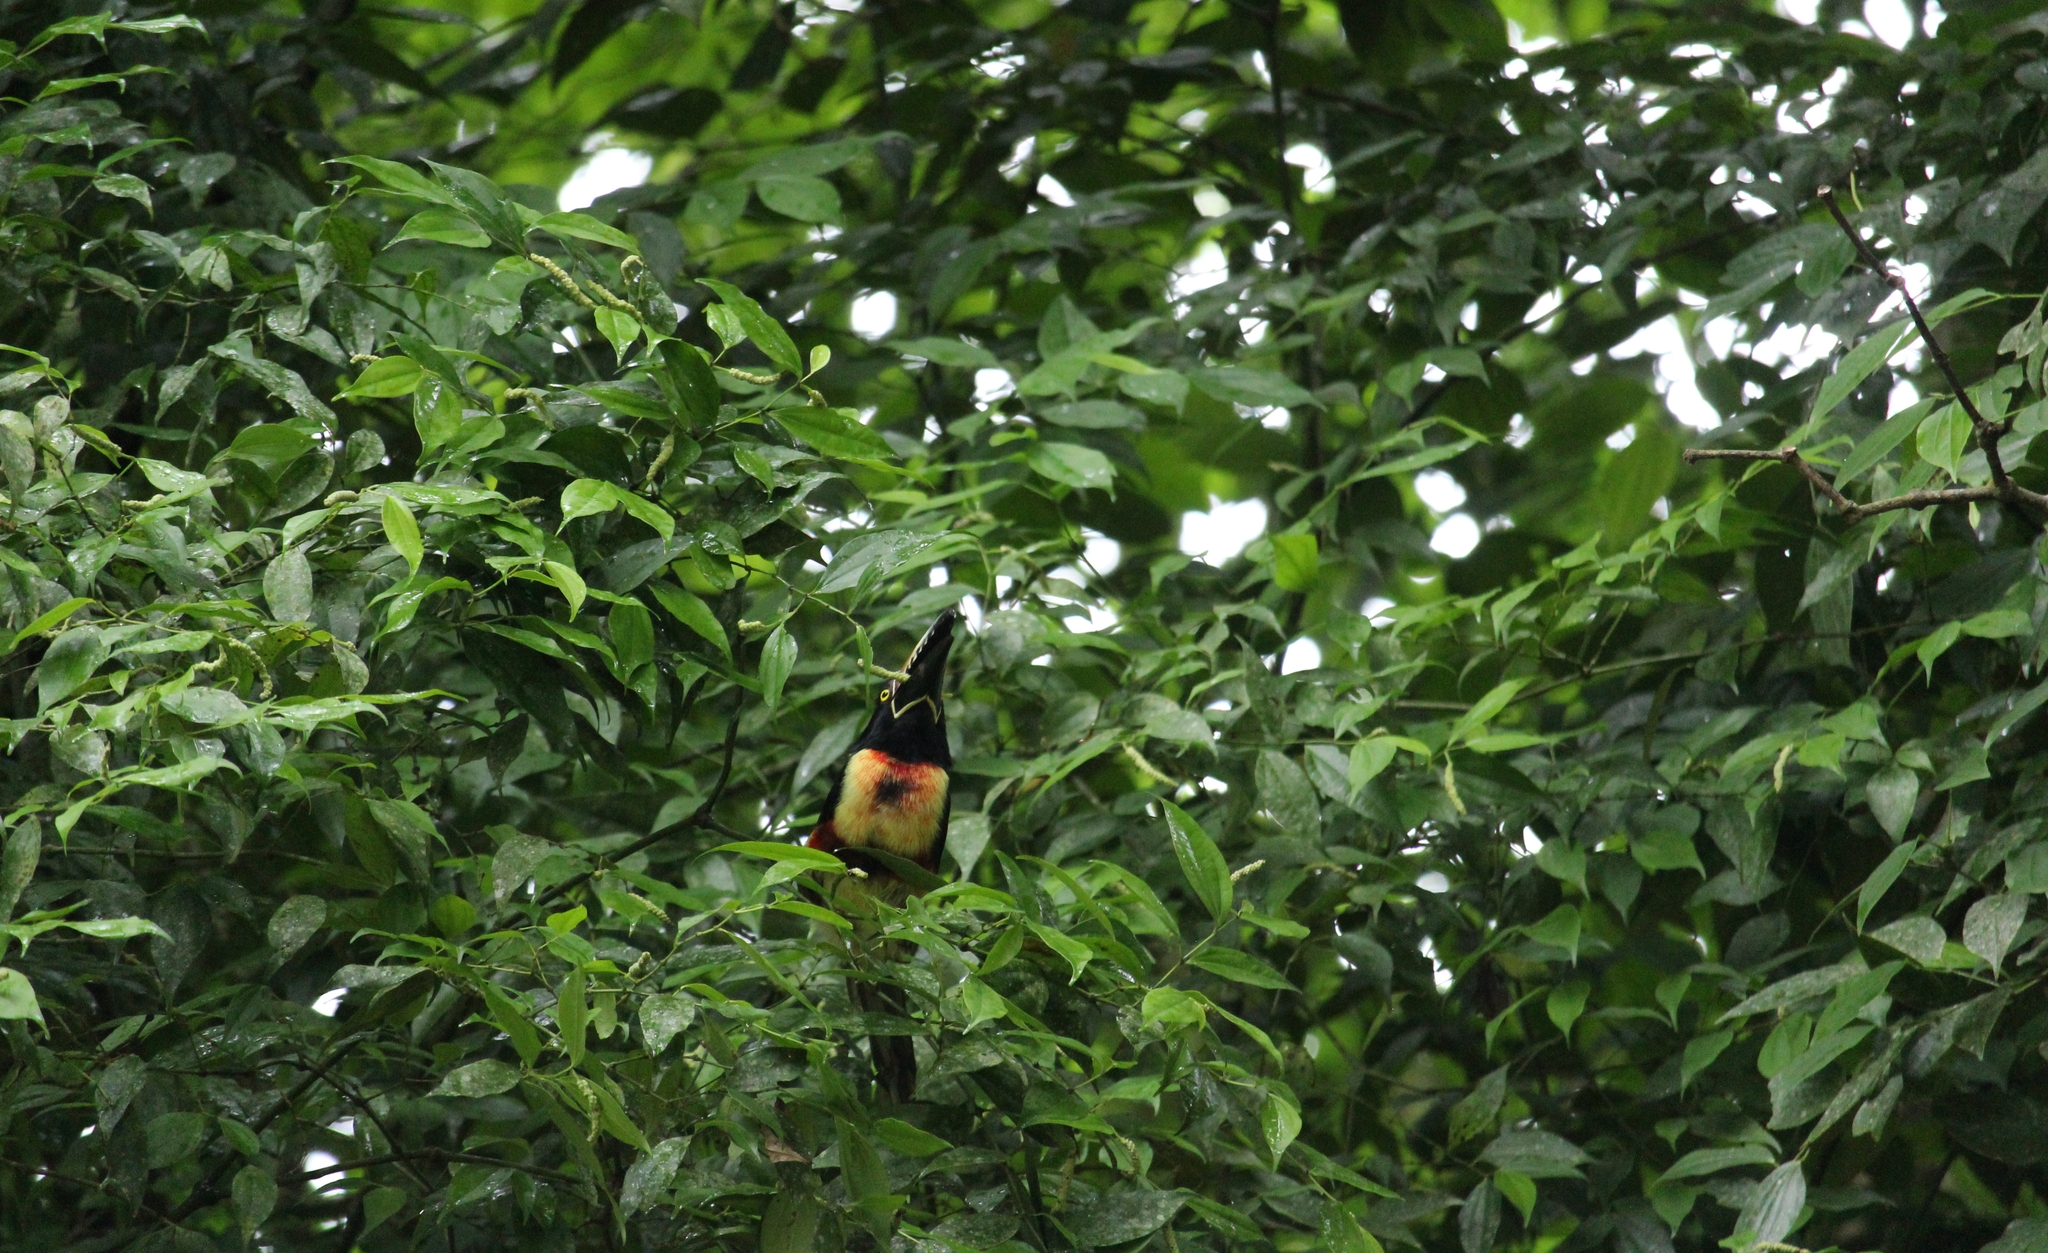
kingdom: Animalia
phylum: Chordata
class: Aves
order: Piciformes
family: Ramphastidae
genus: Pteroglossus
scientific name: Pteroglossus torquatus
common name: Collared aracari
